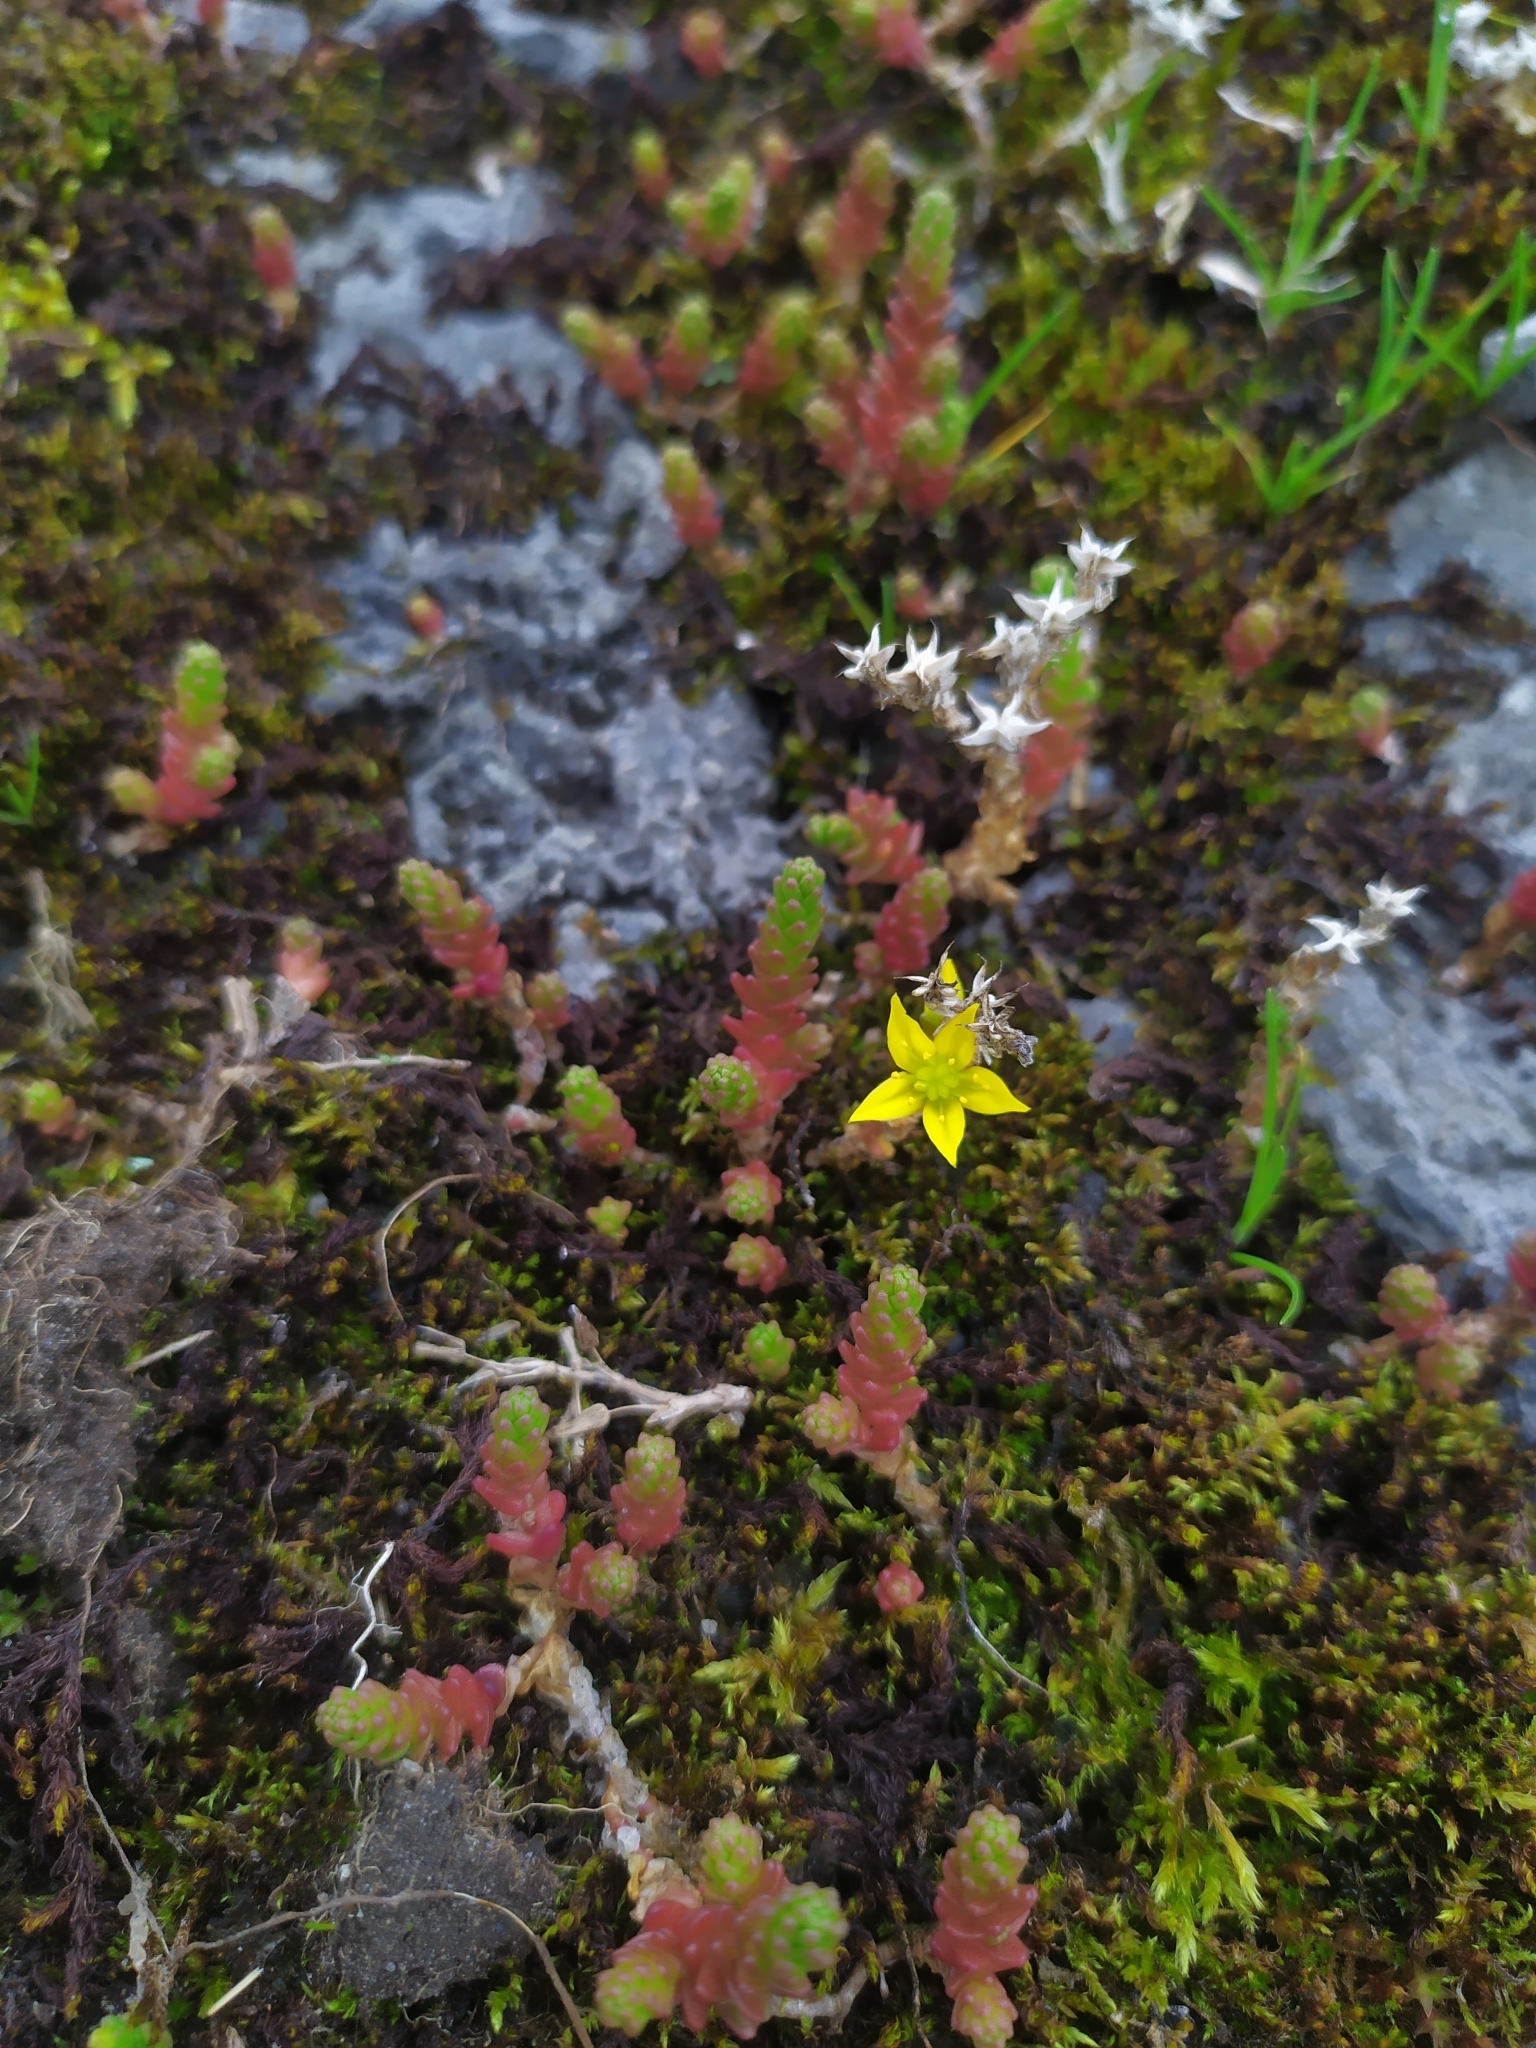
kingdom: Plantae
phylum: Tracheophyta
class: Magnoliopsida
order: Saxifragales
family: Crassulaceae
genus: Sedum
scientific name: Sedum acre
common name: Biting stonecrop
